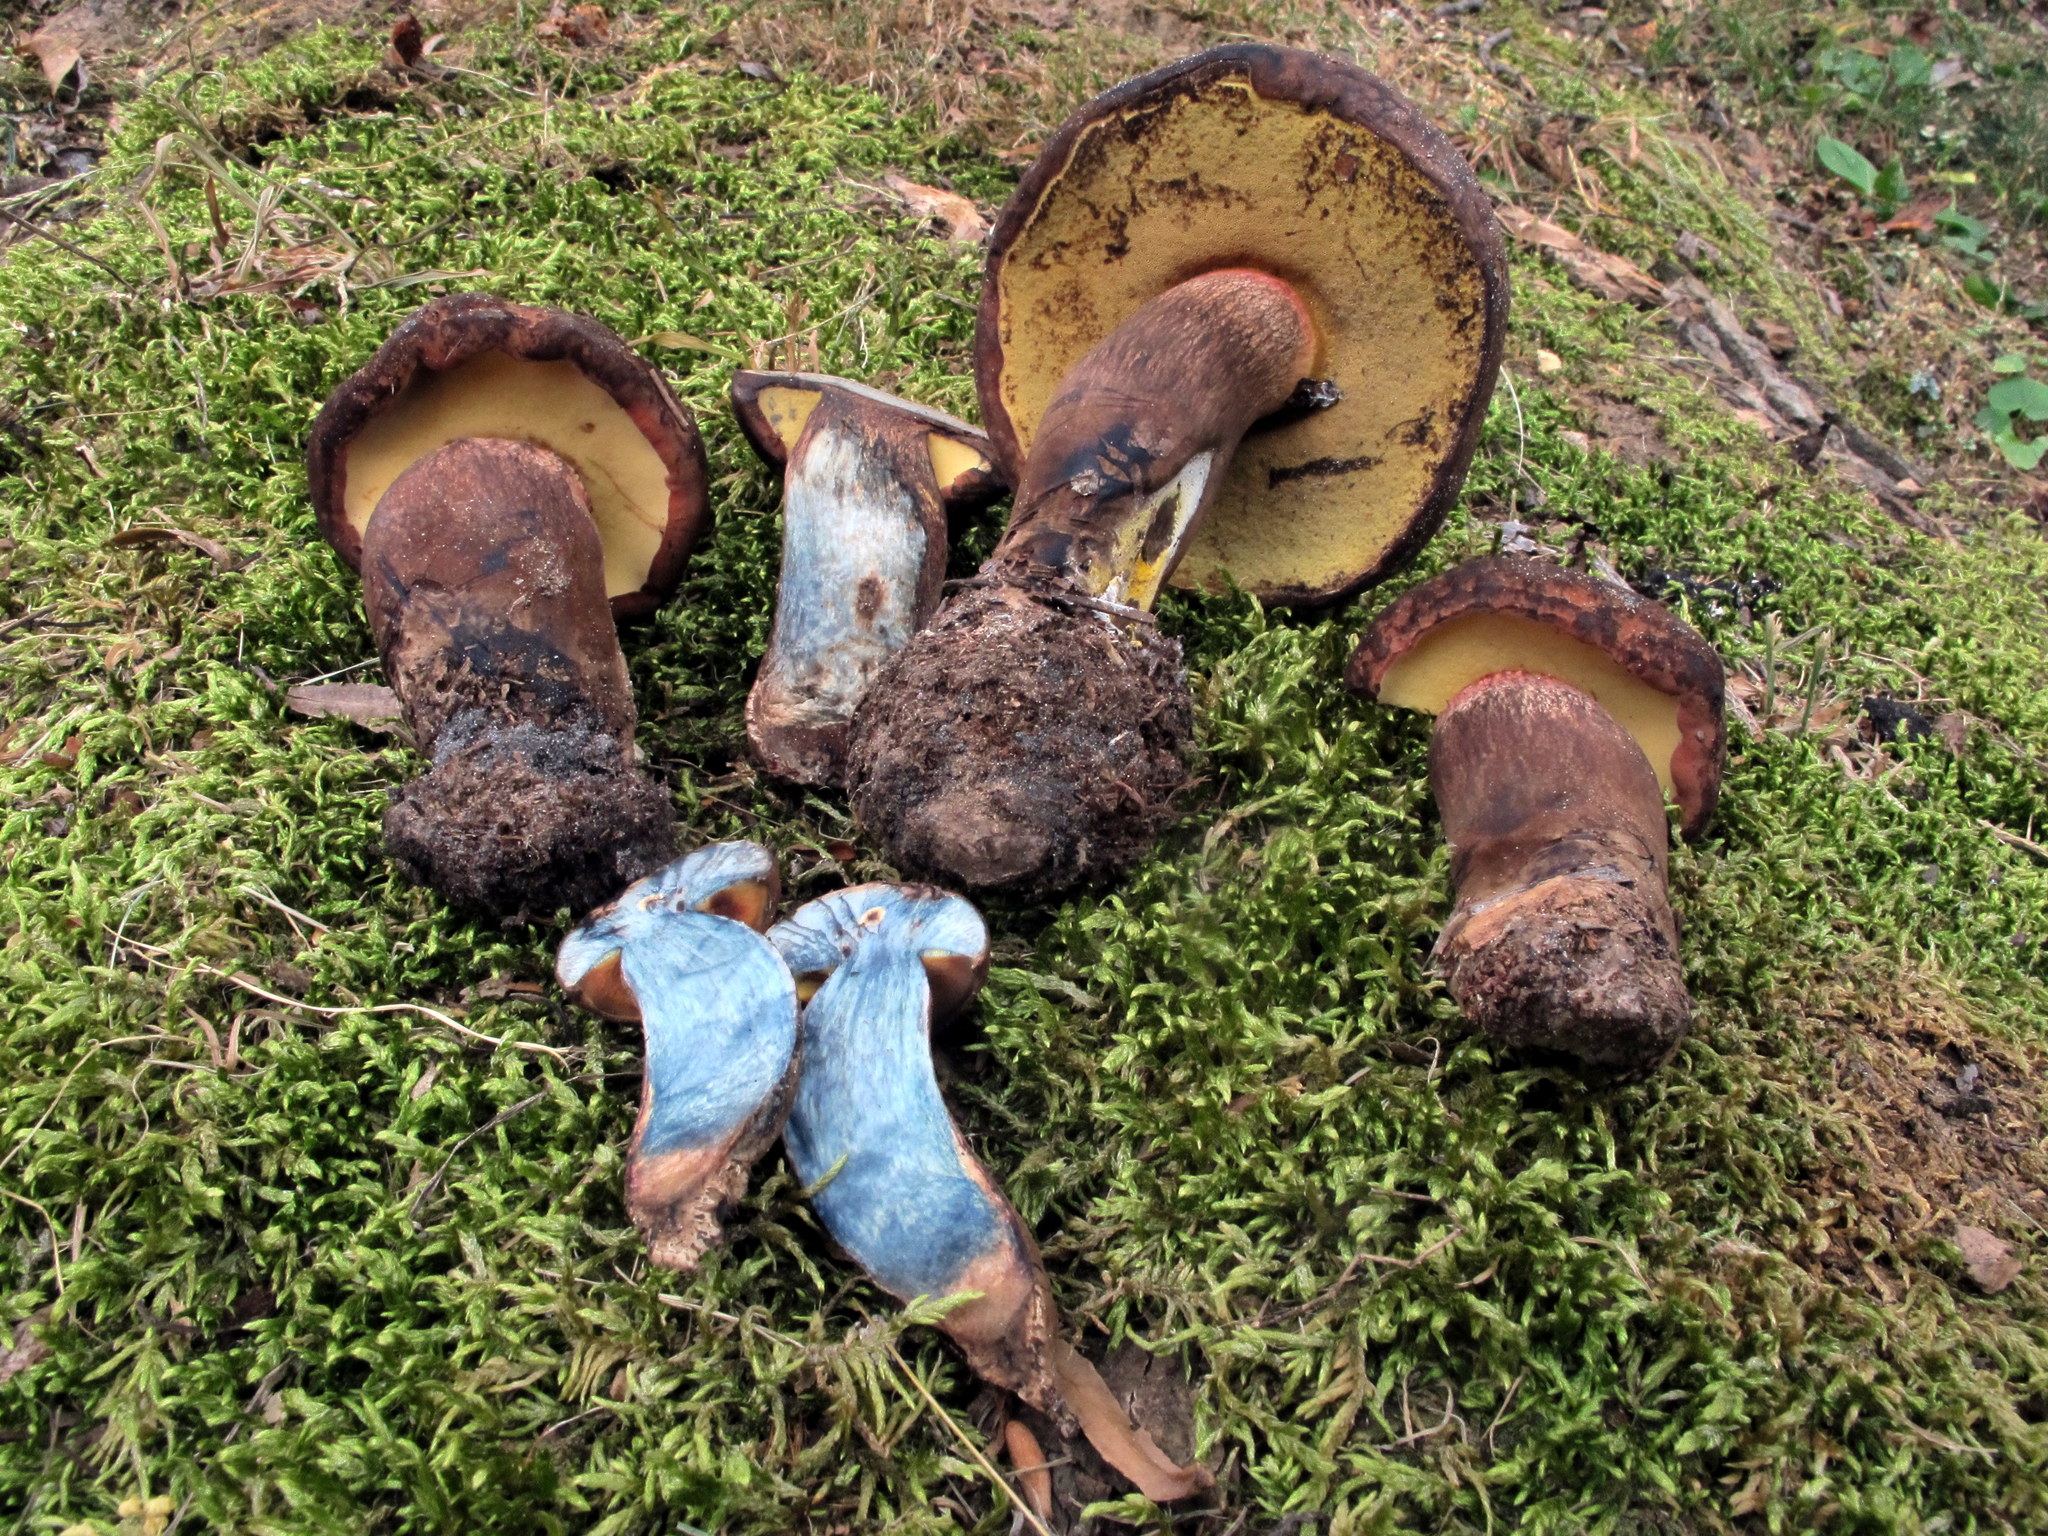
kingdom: Fungi
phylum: Basidiomycota
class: Agaricomycetes
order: Boletales
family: Boletaceae
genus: Boletus
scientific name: Boletus
